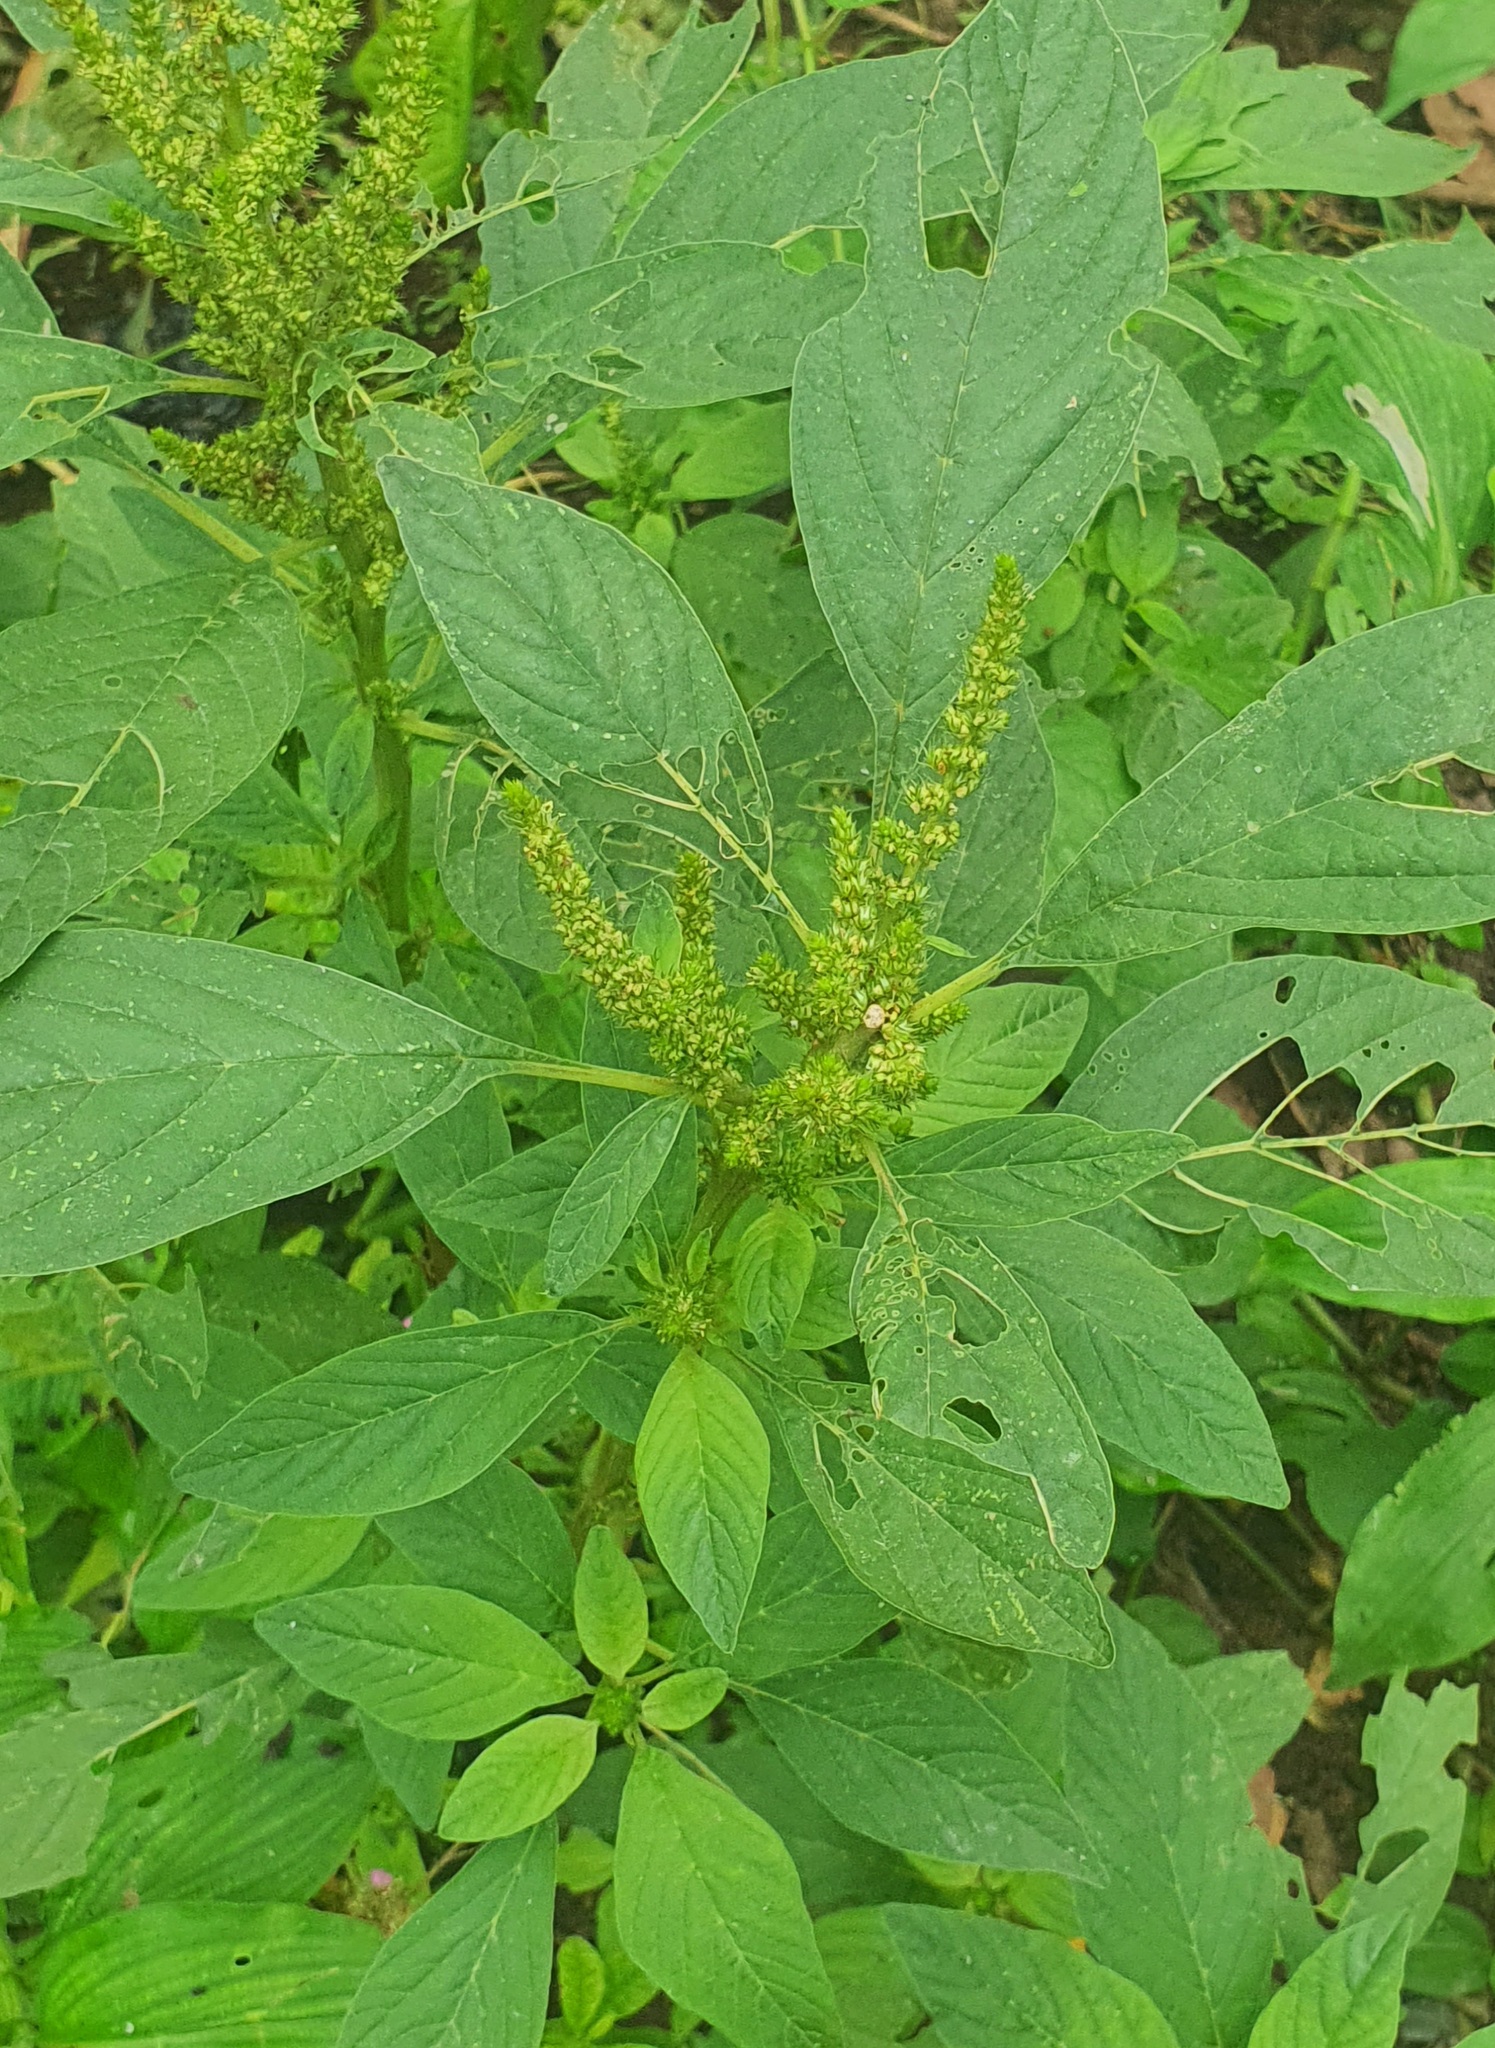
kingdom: Plantae
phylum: Tracheophyta
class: Magnoliopsida
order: Caryophyllales
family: Amaranthaceae
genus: Amaranthus
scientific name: Amaranthus palmeri
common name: Dioecious amaranth
